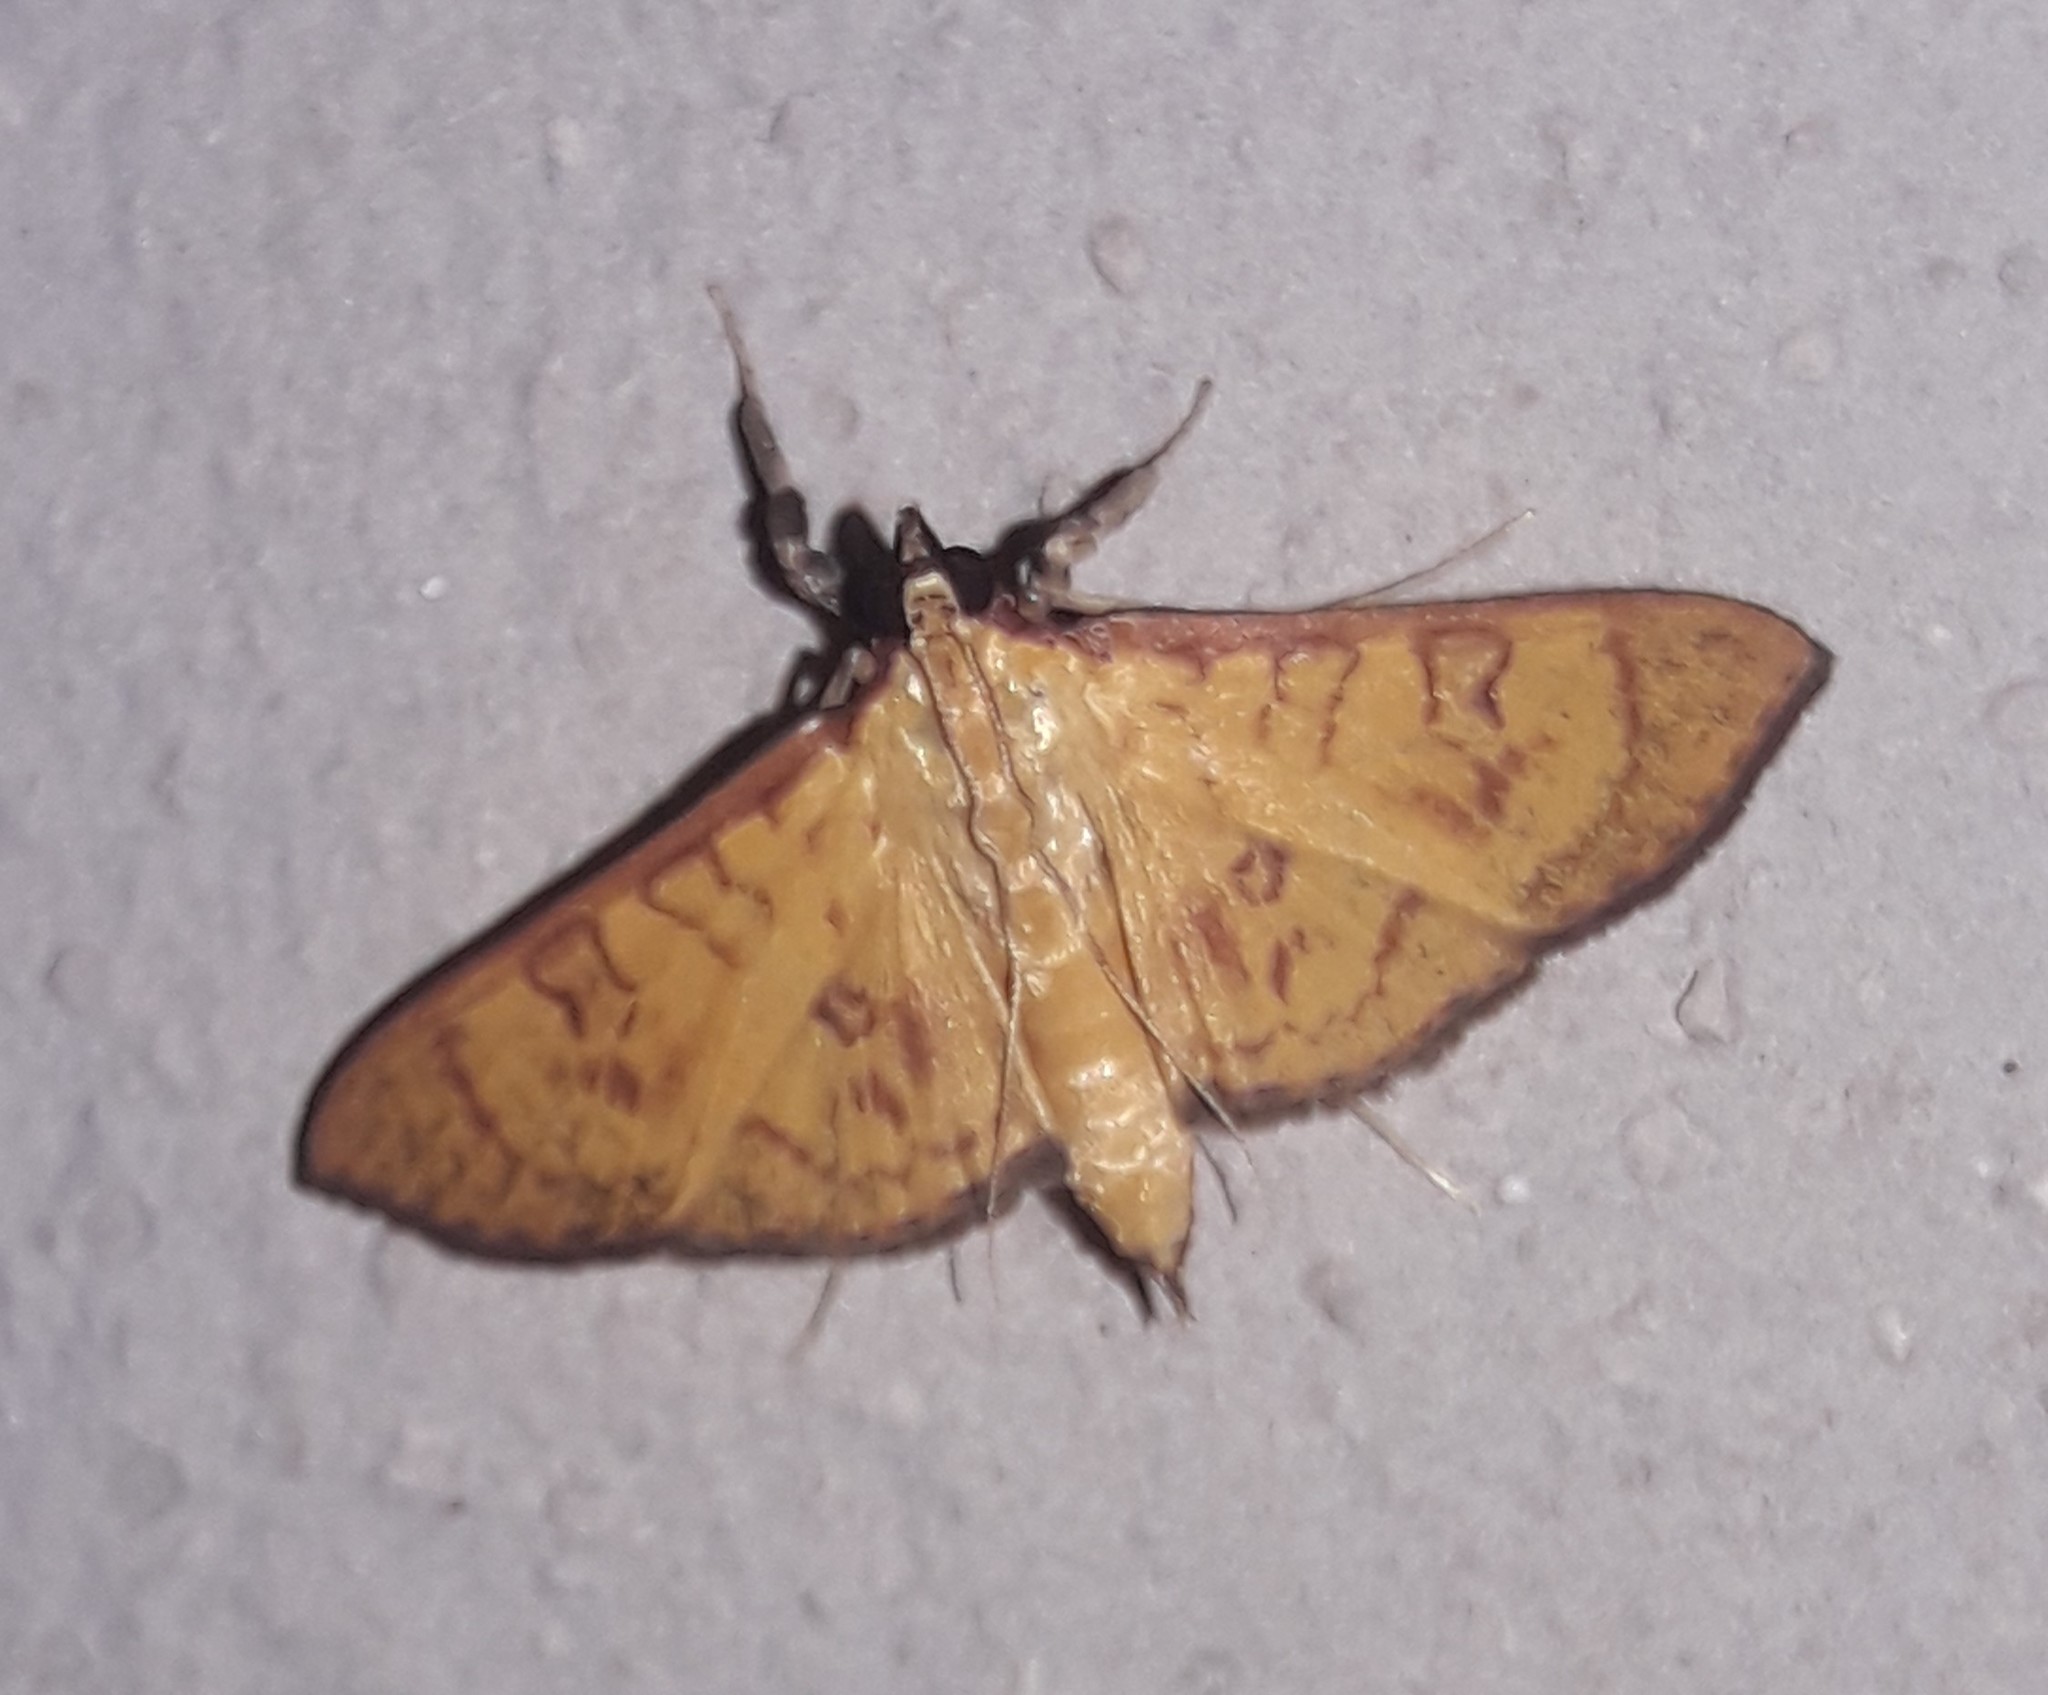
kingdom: Animalia
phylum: Arthropoda
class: Insecta
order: Lepidoptera
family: Crambidae
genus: Trithyris
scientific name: Trithyris
